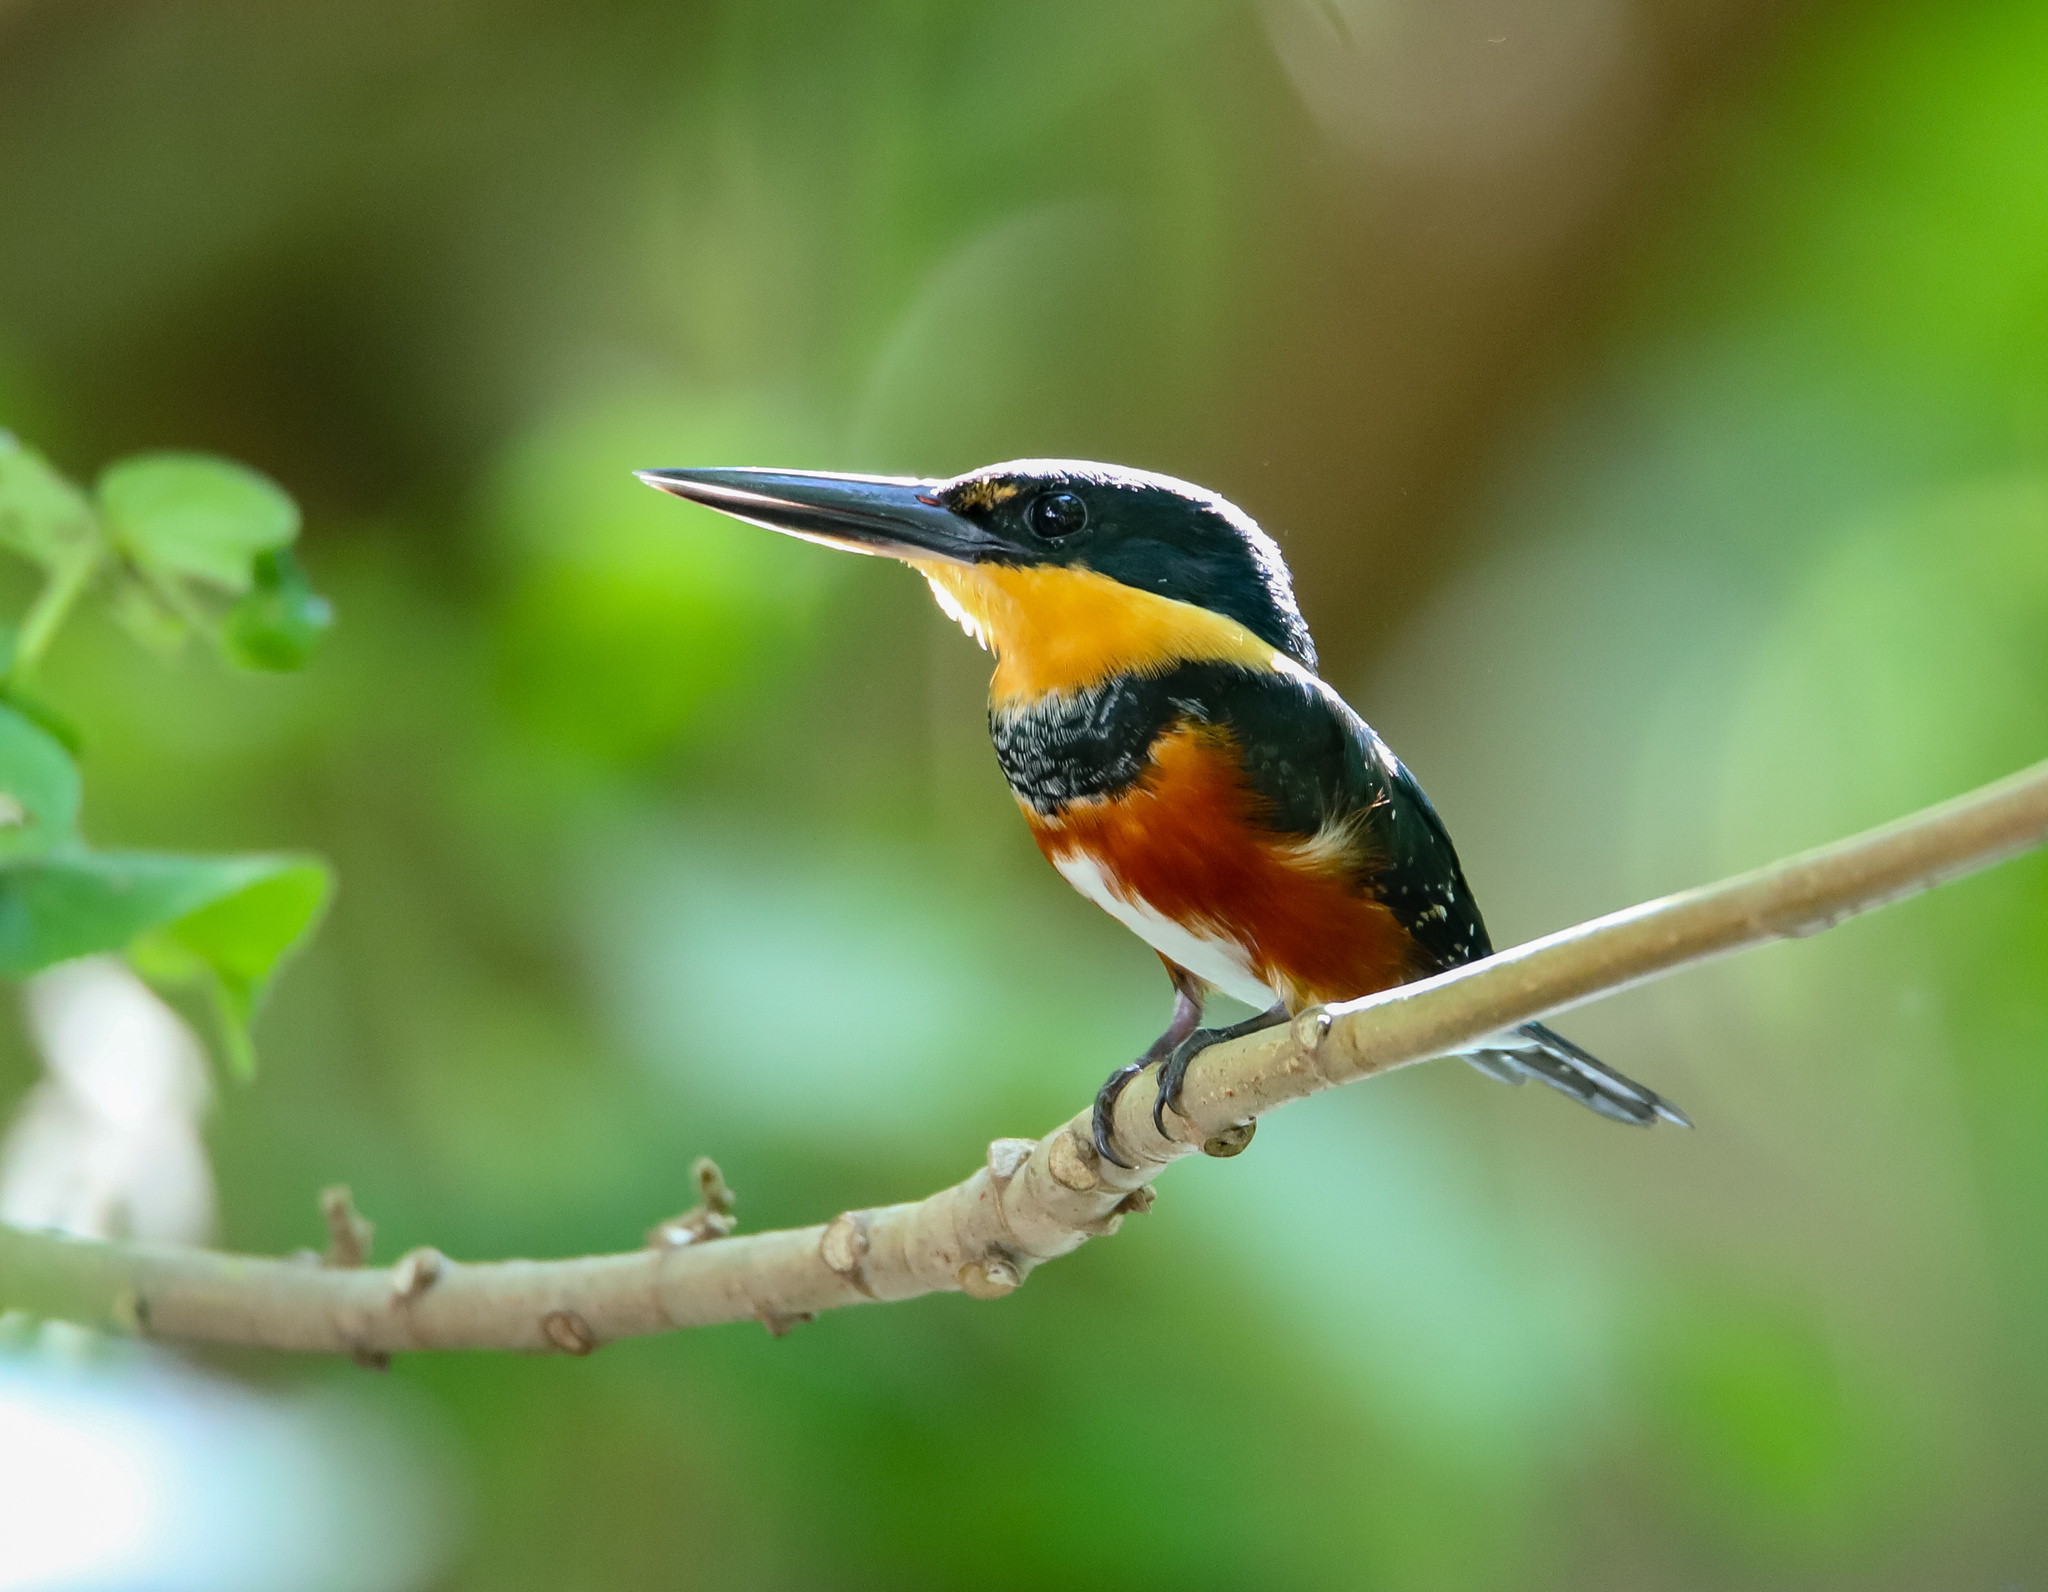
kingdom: Animalia
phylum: Chordata
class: Aves
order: Coraciiformes
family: Alcedinidae
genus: Chloroceryle
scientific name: Chloroceryle aenea
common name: American pygmy kingfisher
